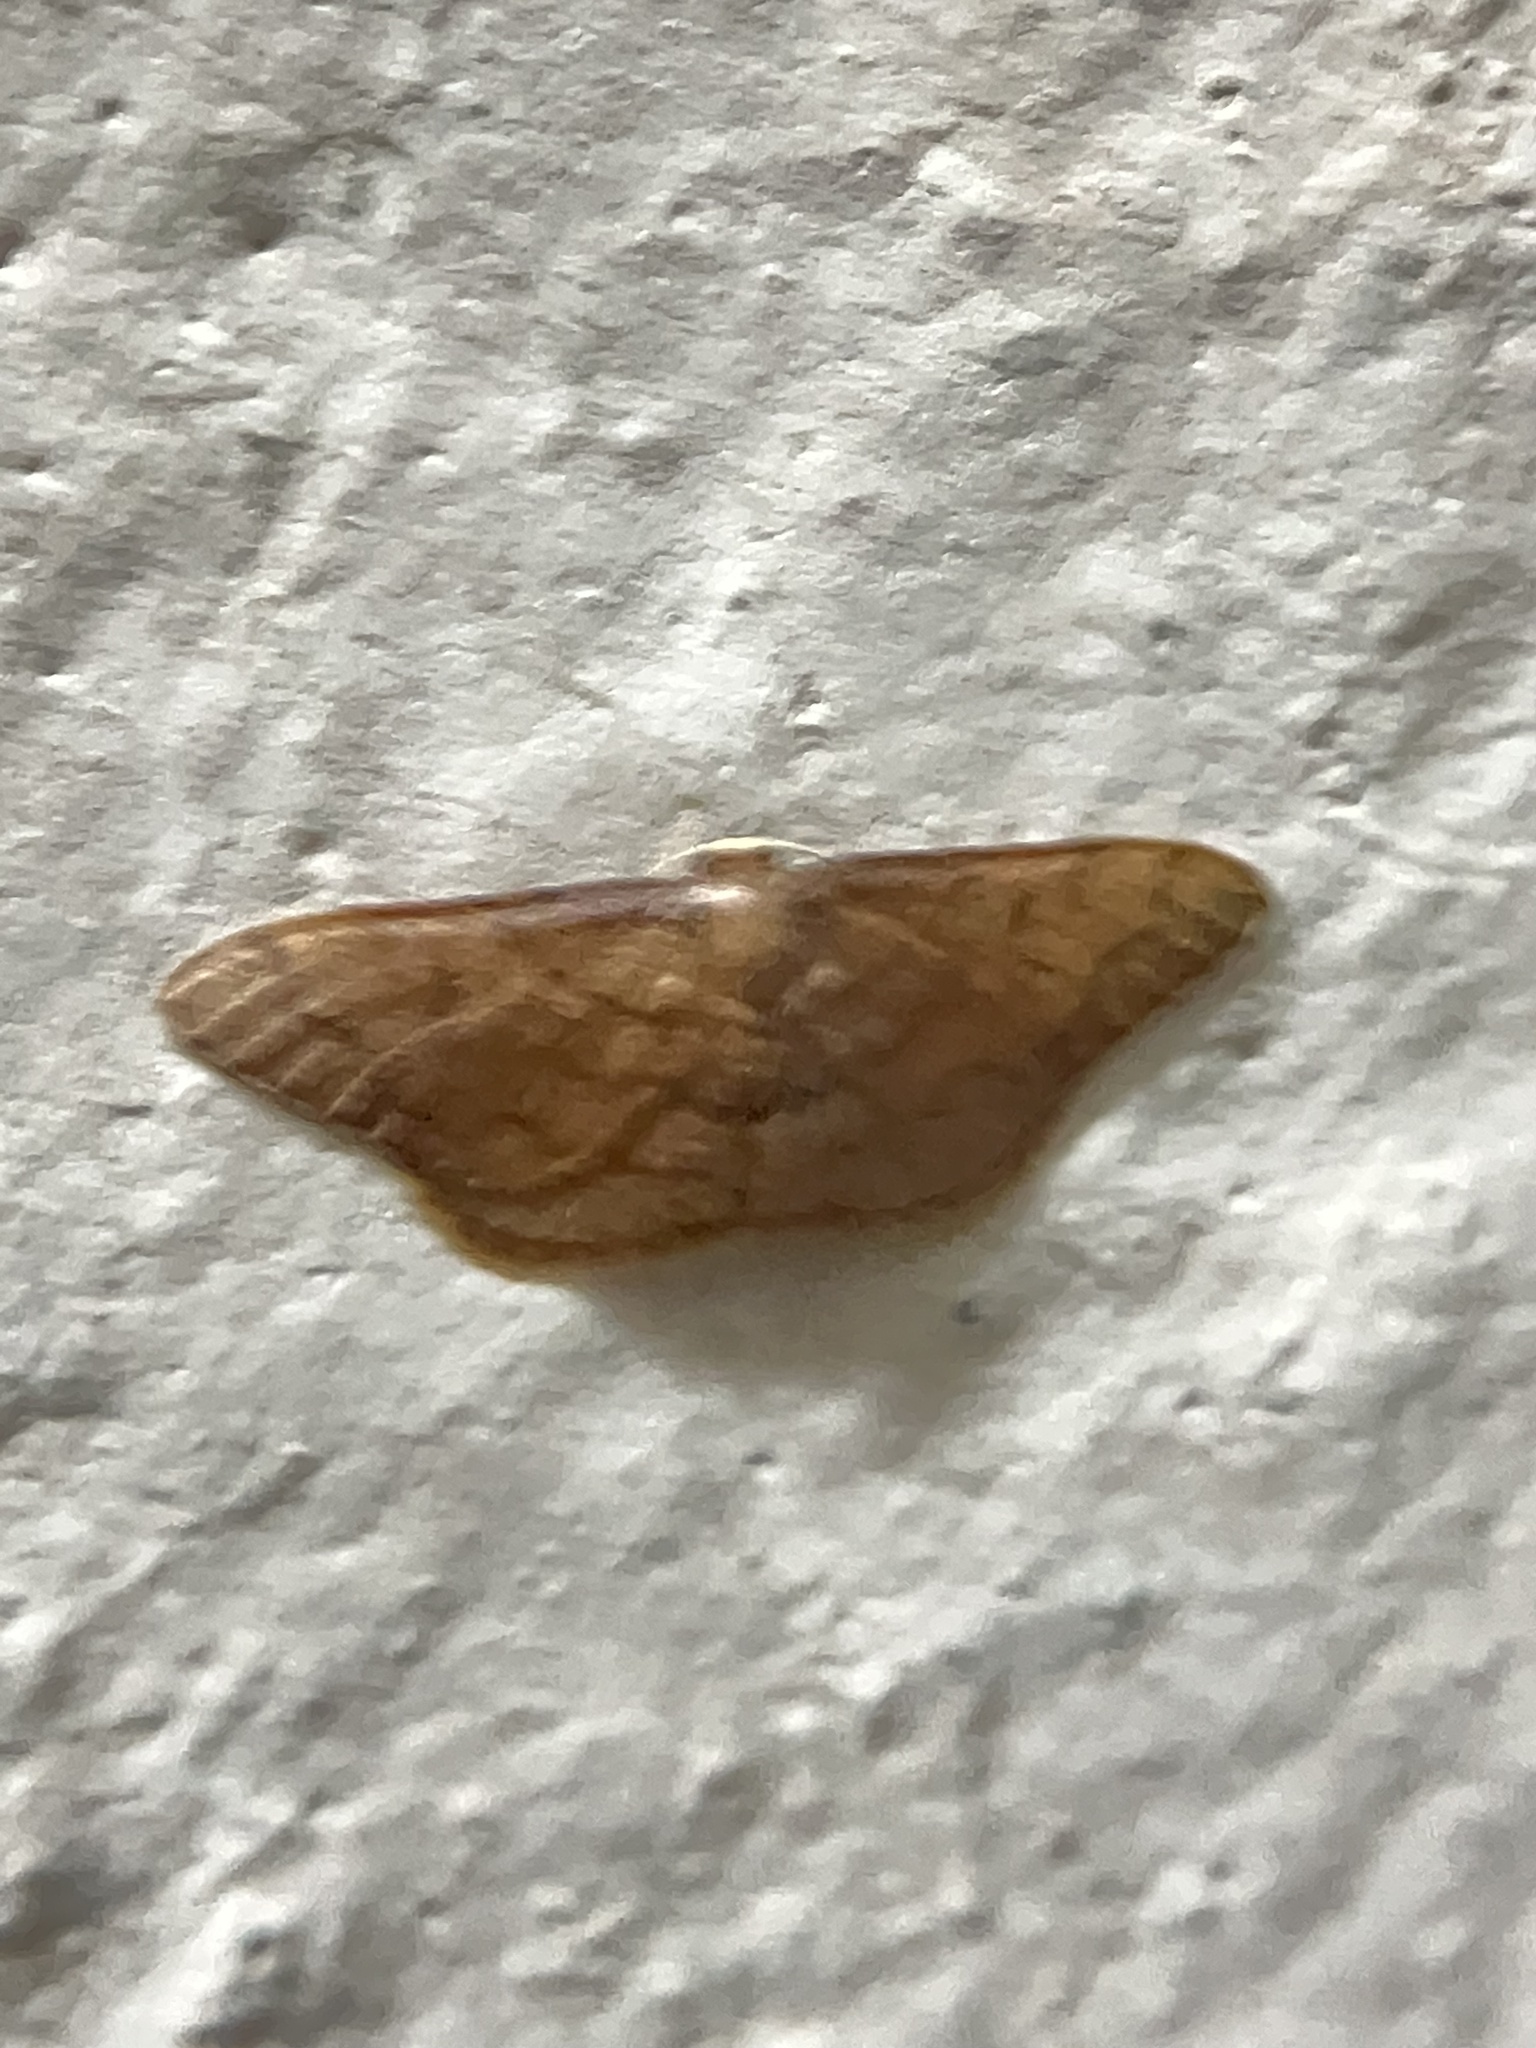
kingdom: Animalia
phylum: Arthropoda
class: Insecta
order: Lepidoptera
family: Geometridae
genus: Idaea
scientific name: Idaea amplipennis
